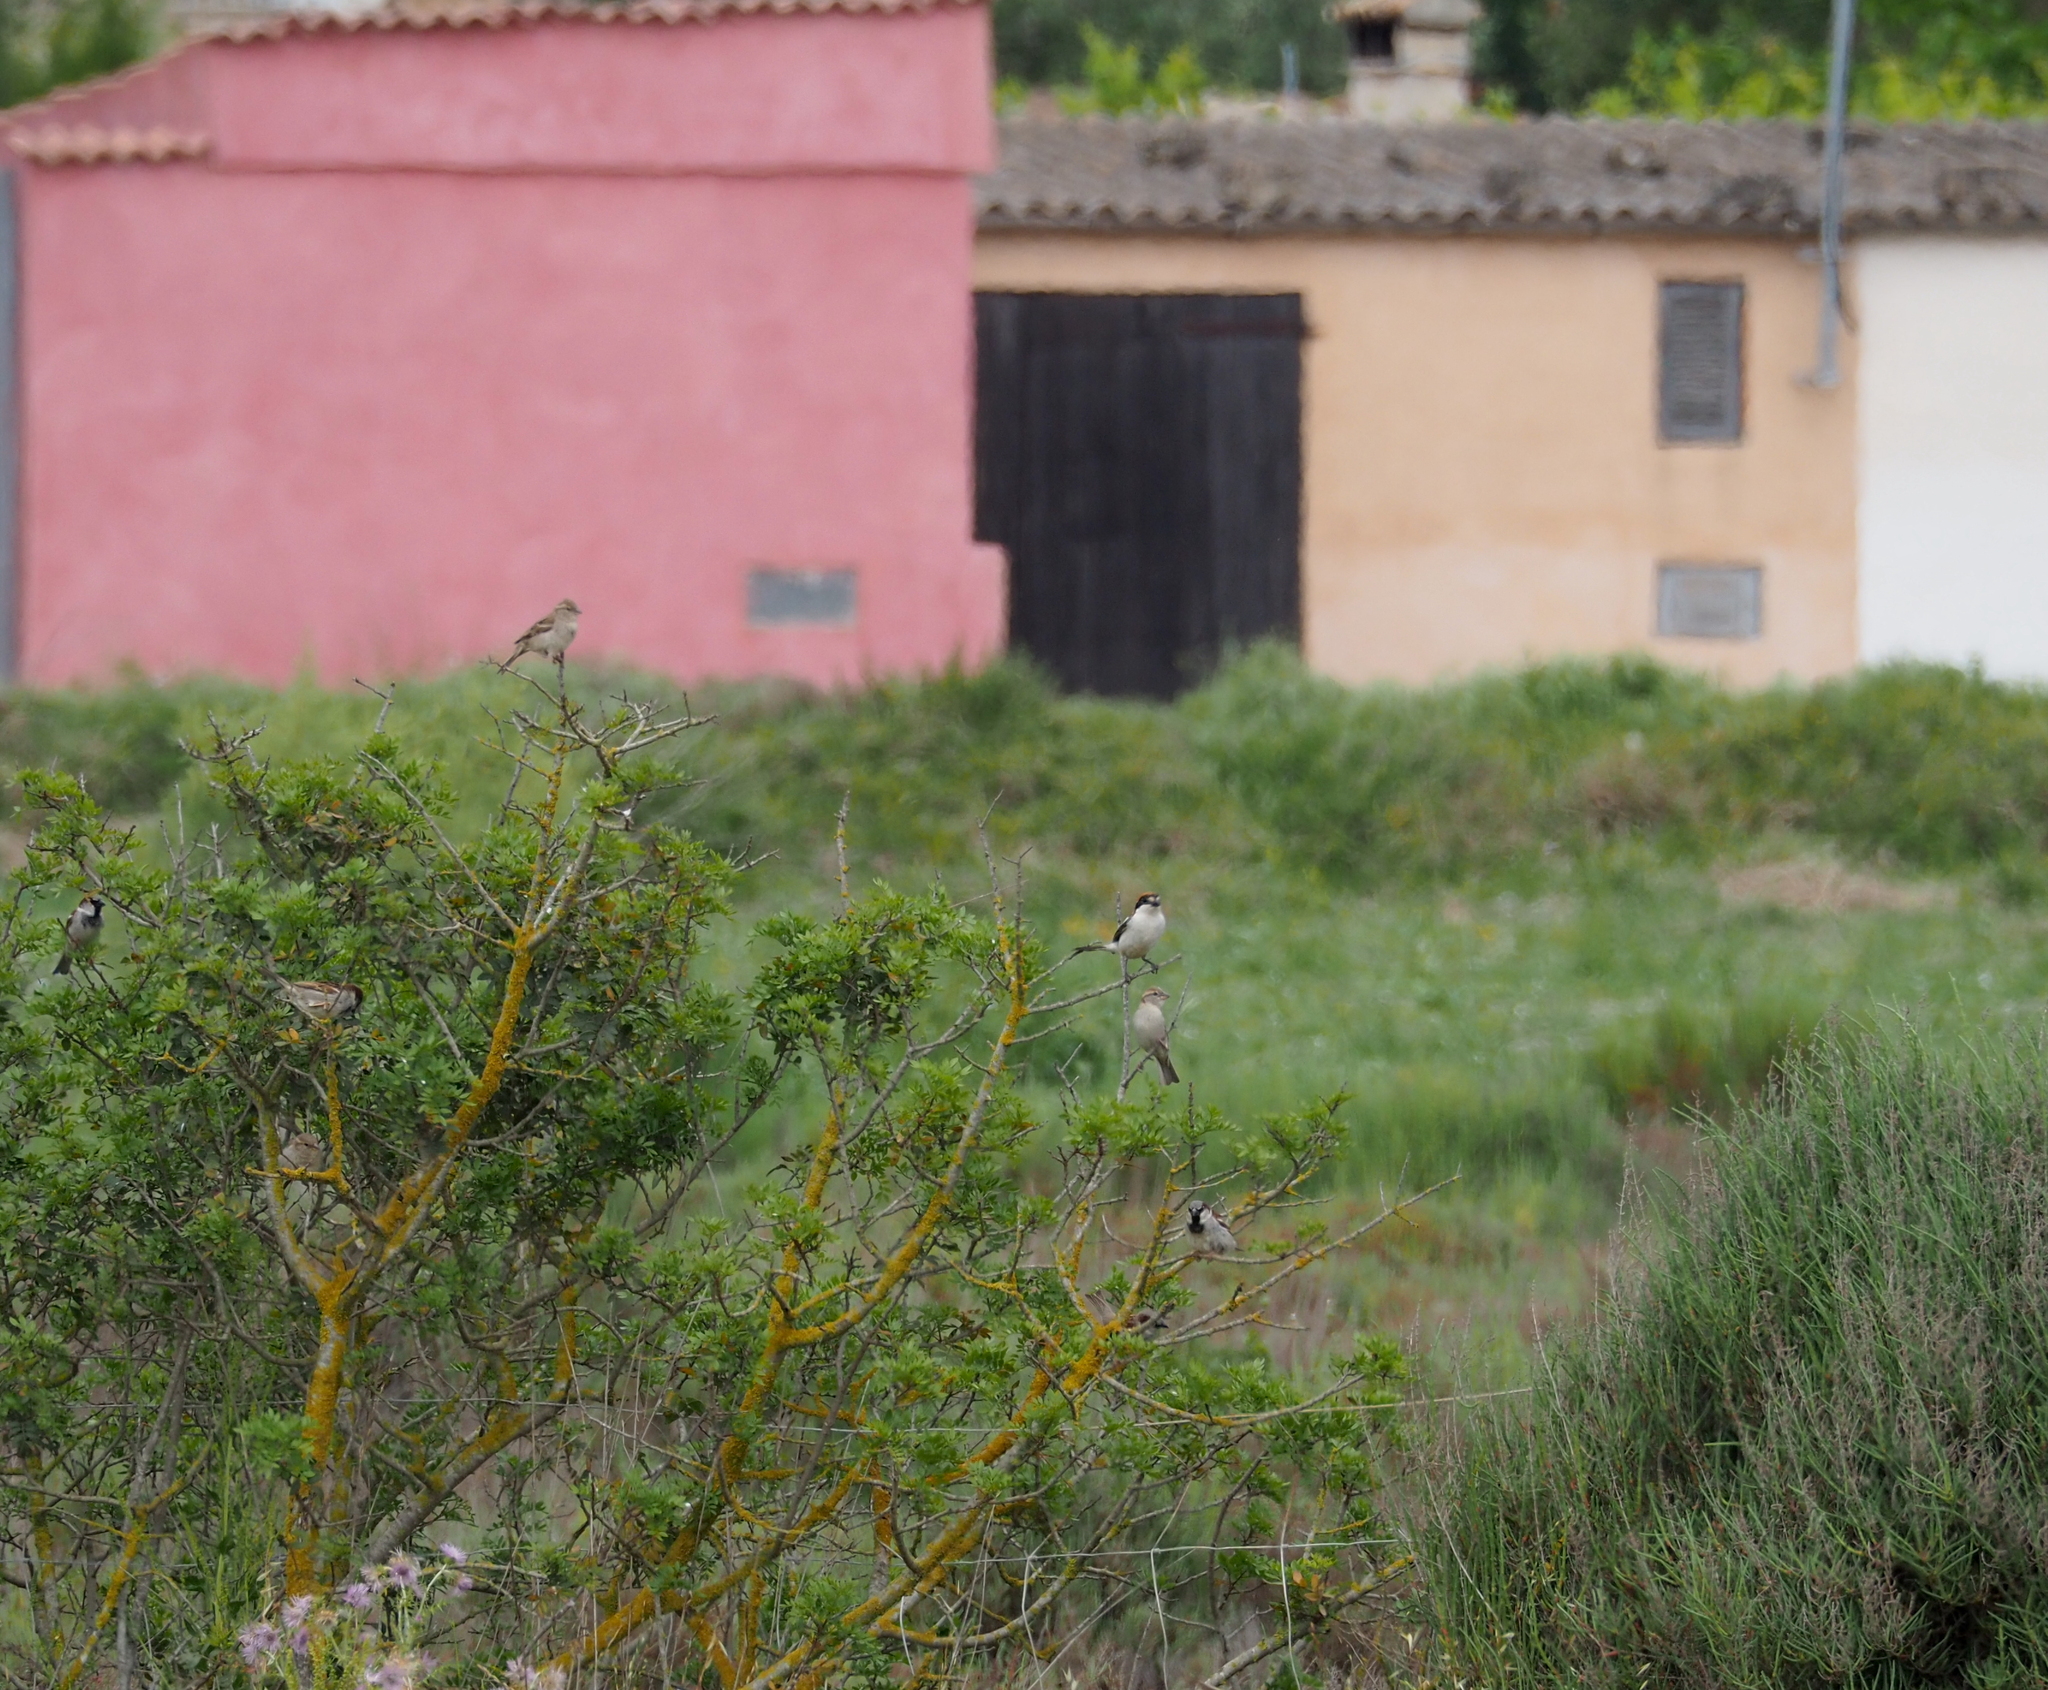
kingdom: Animalia
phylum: Chordata
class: Aves
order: Passeriformes
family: Laniidae
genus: Lanius
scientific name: Lanius senator
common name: Woodchat shrike
